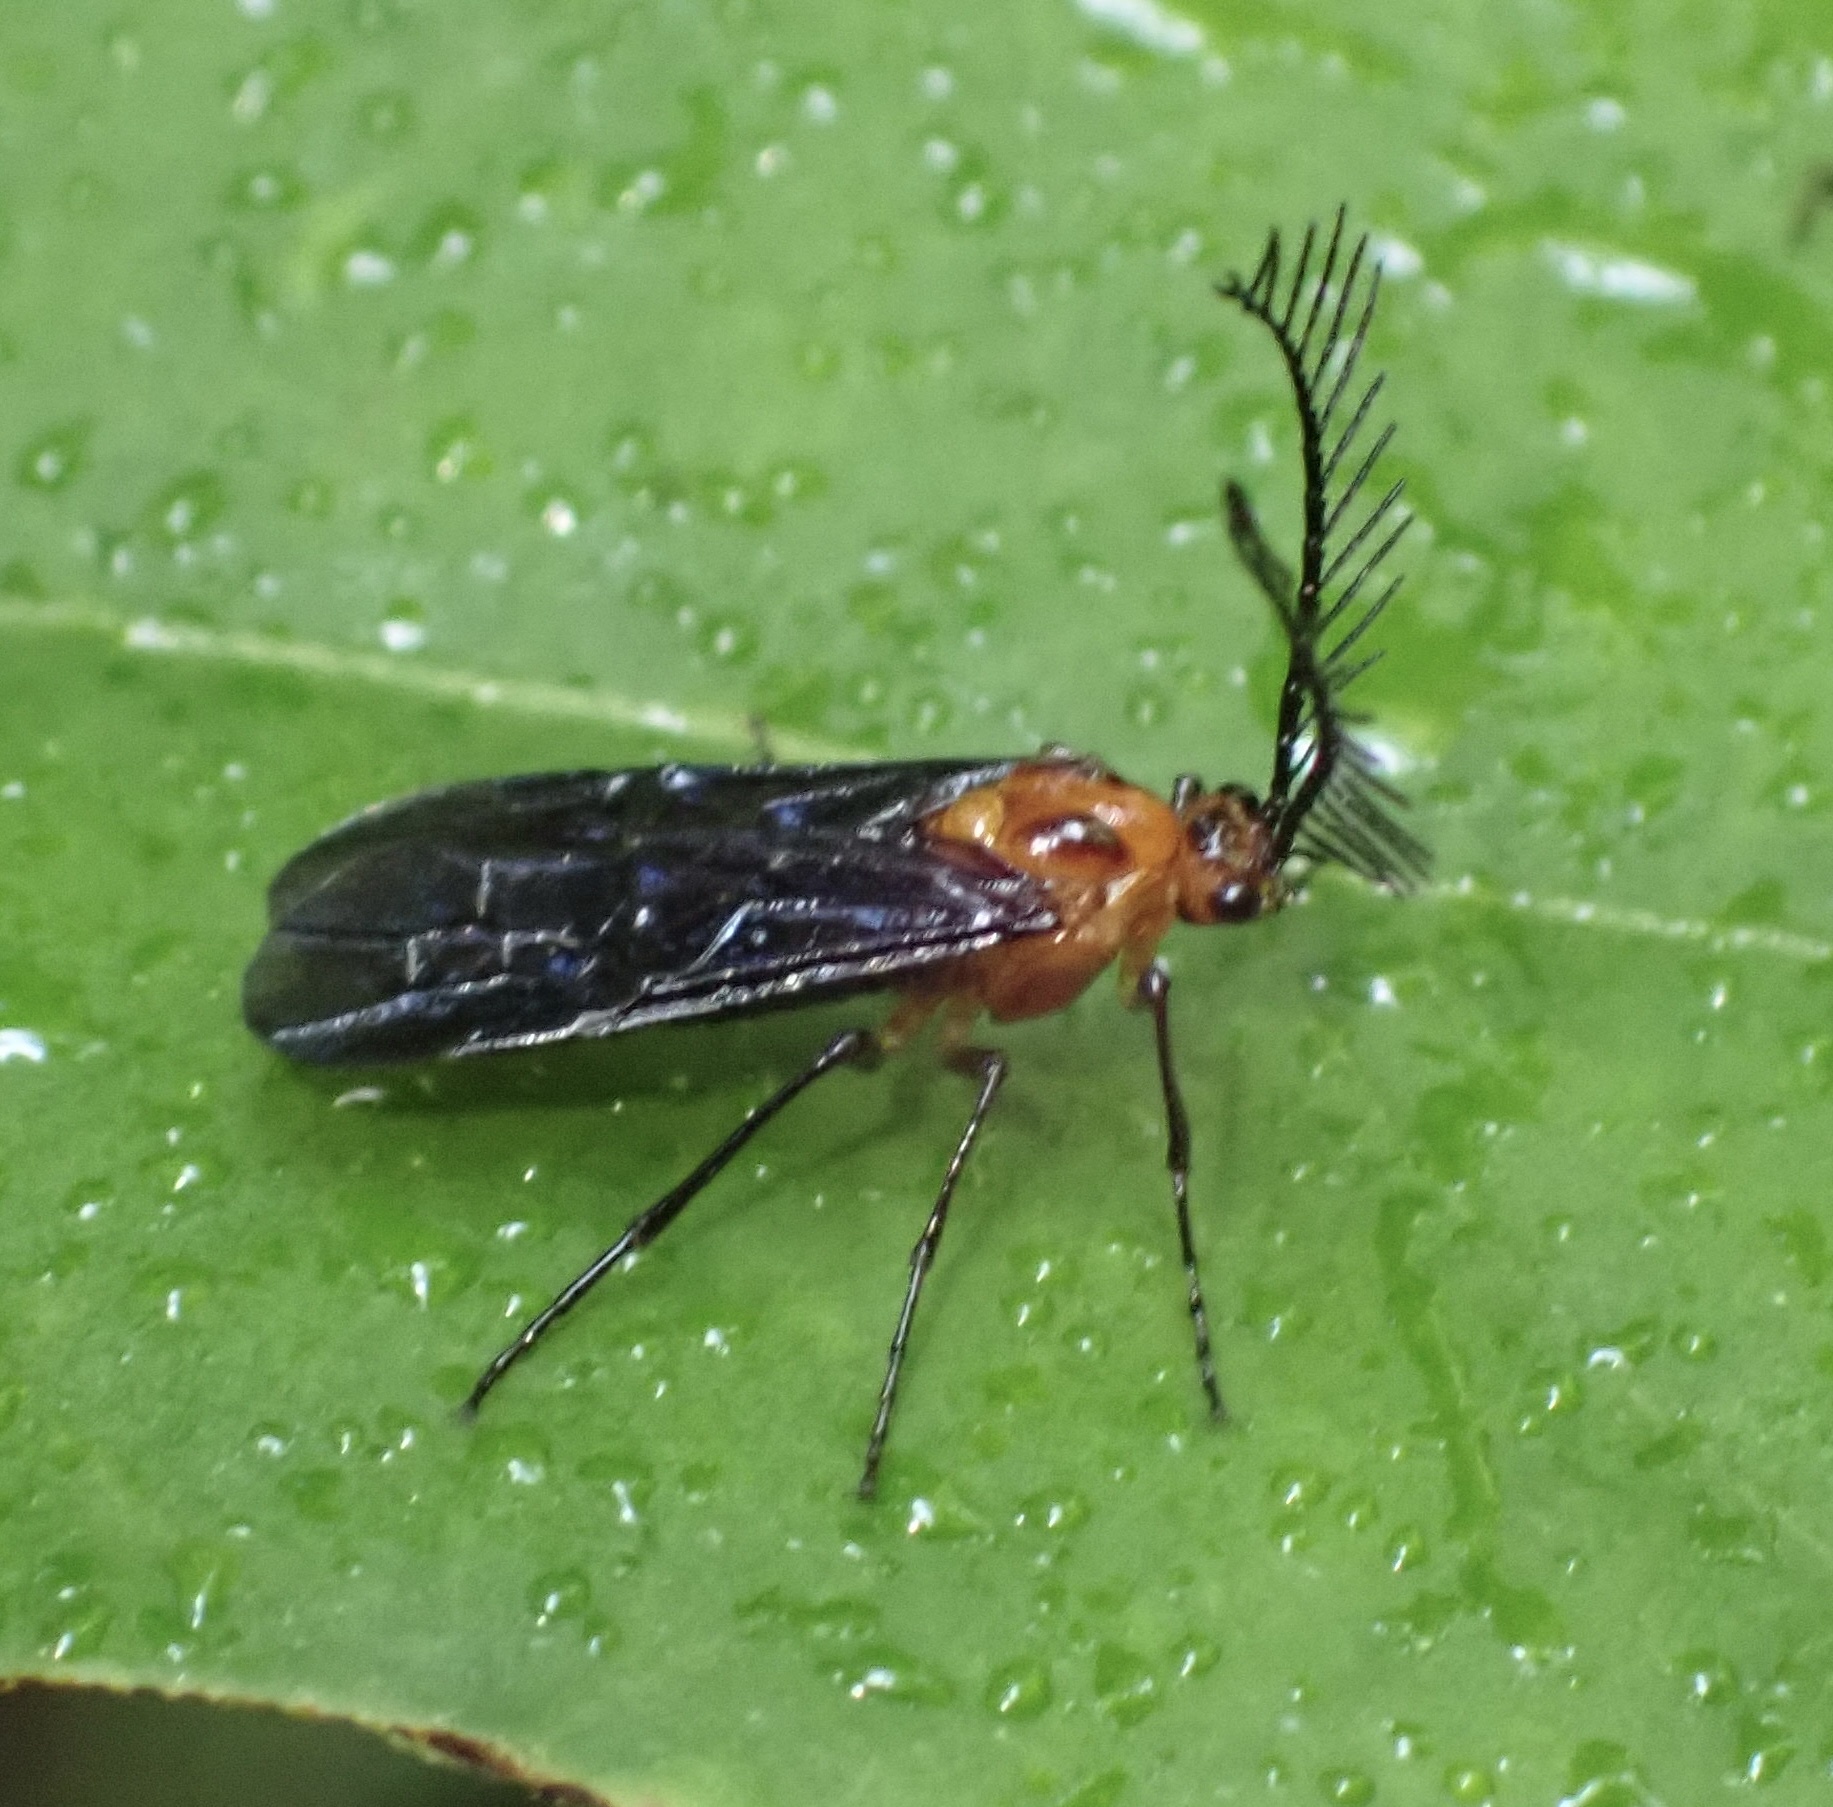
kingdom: Animalia
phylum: Arthropoda
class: Insecta
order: Hymenoptera
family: Pergidae
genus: Cladomacra
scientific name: Cladomacra macropus
